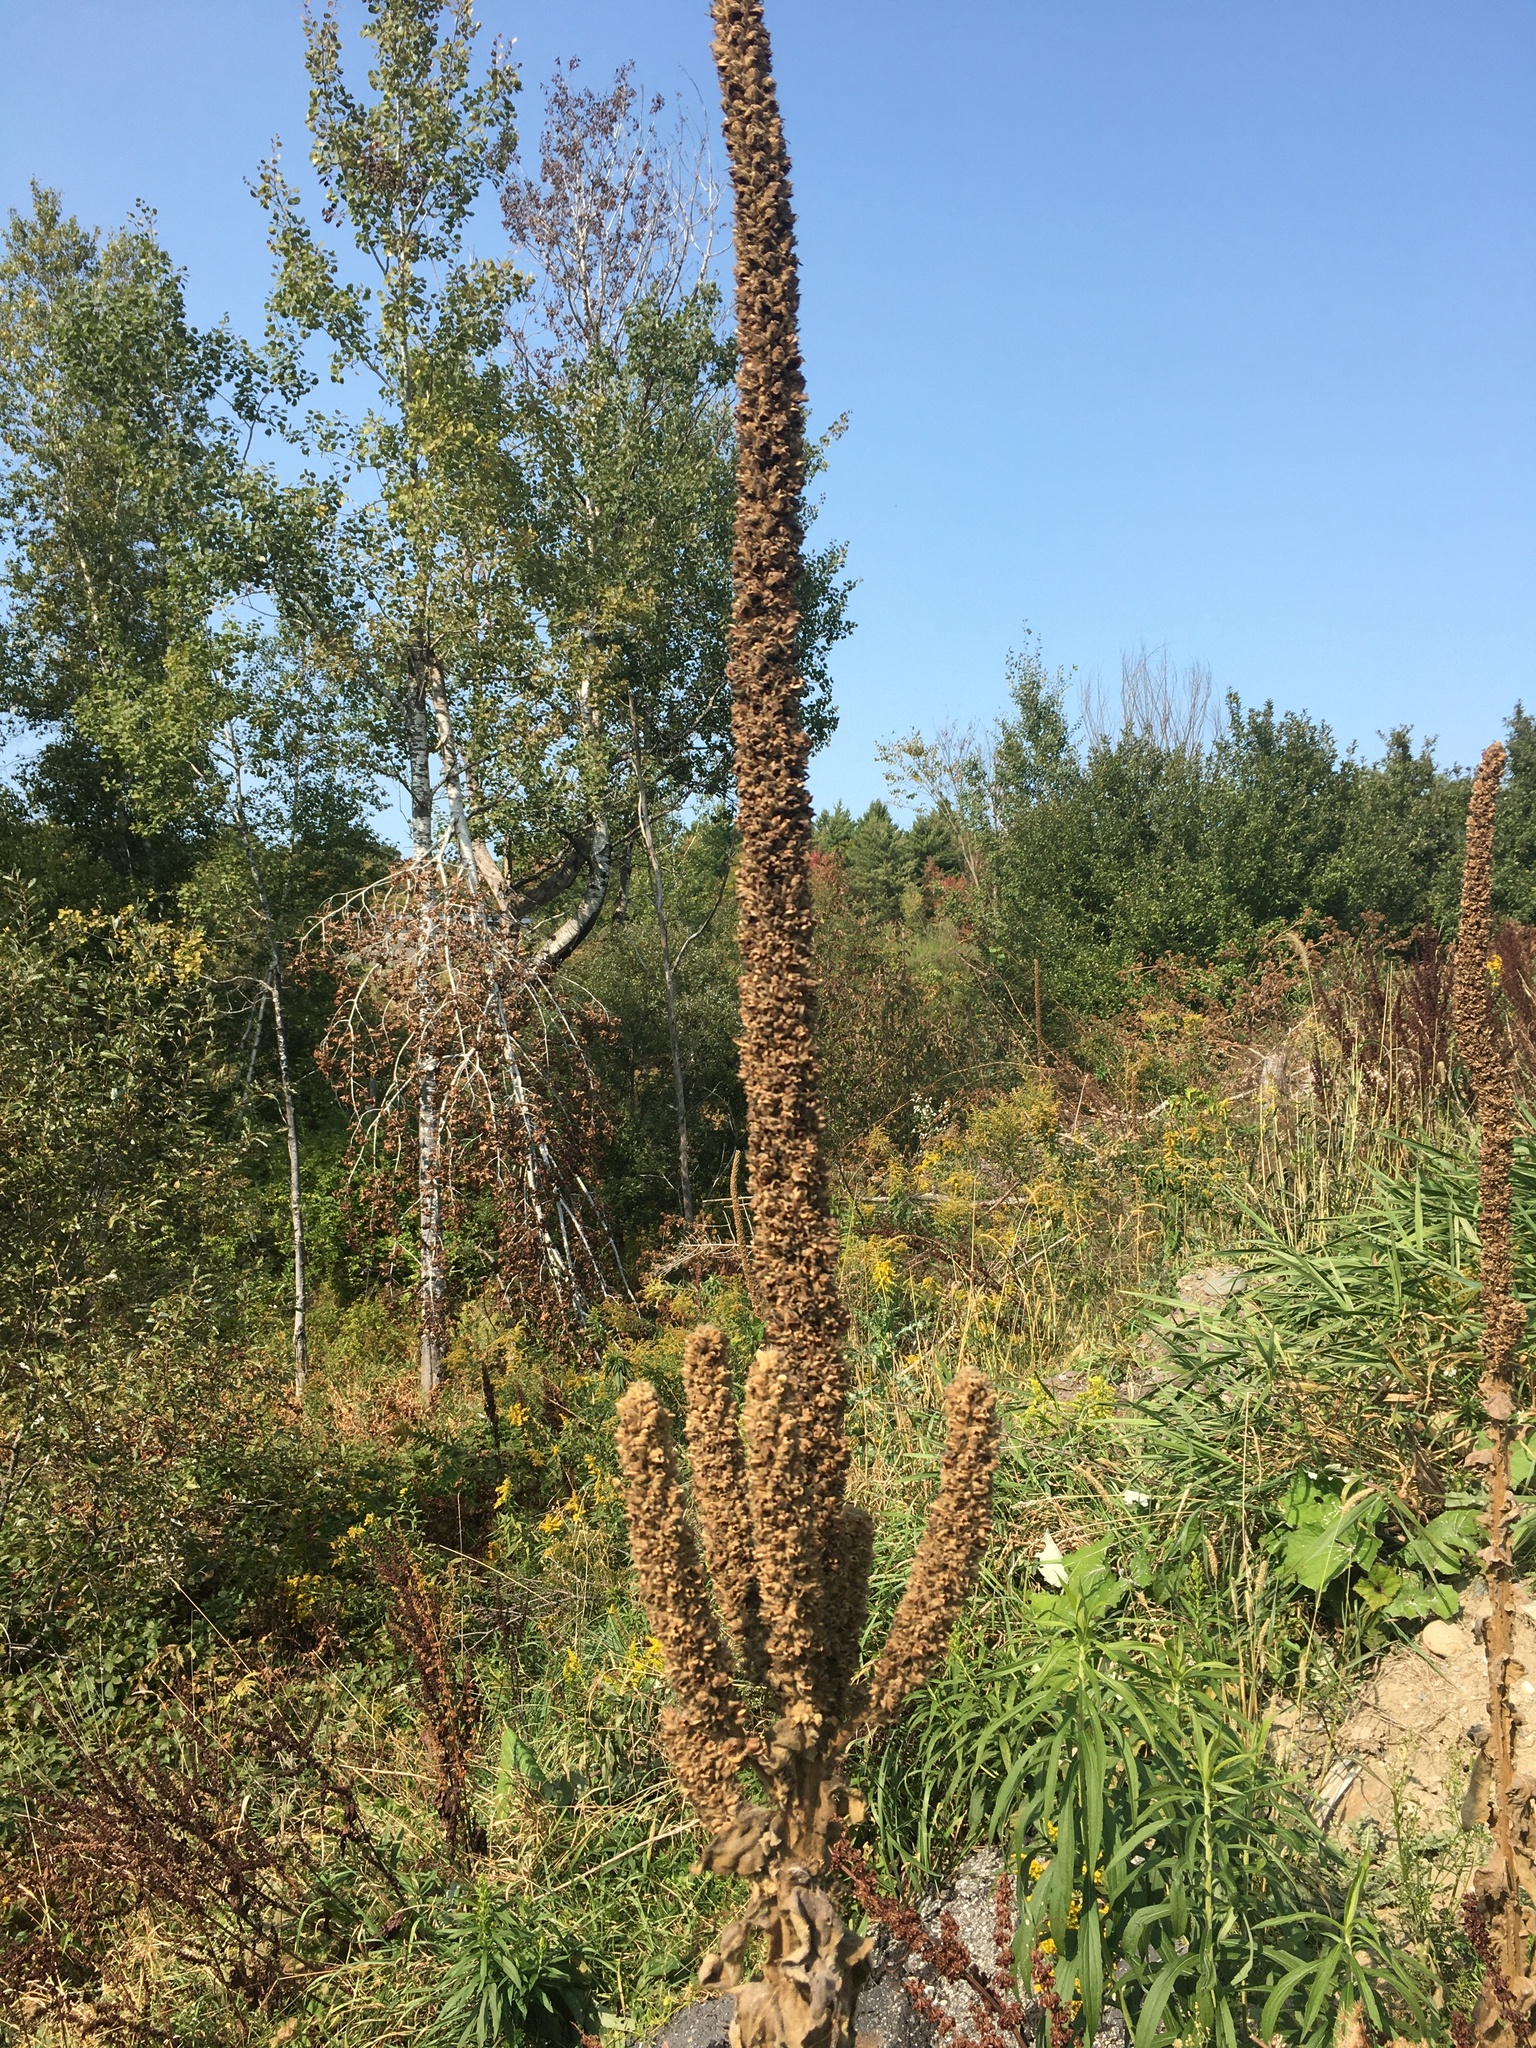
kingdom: Plantae
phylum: Tracheophyta
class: Magnoliopsida
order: Lamiales
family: Scrophulariaceae
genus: Verbascum
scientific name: Verbascum thapsus
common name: Common mullein
